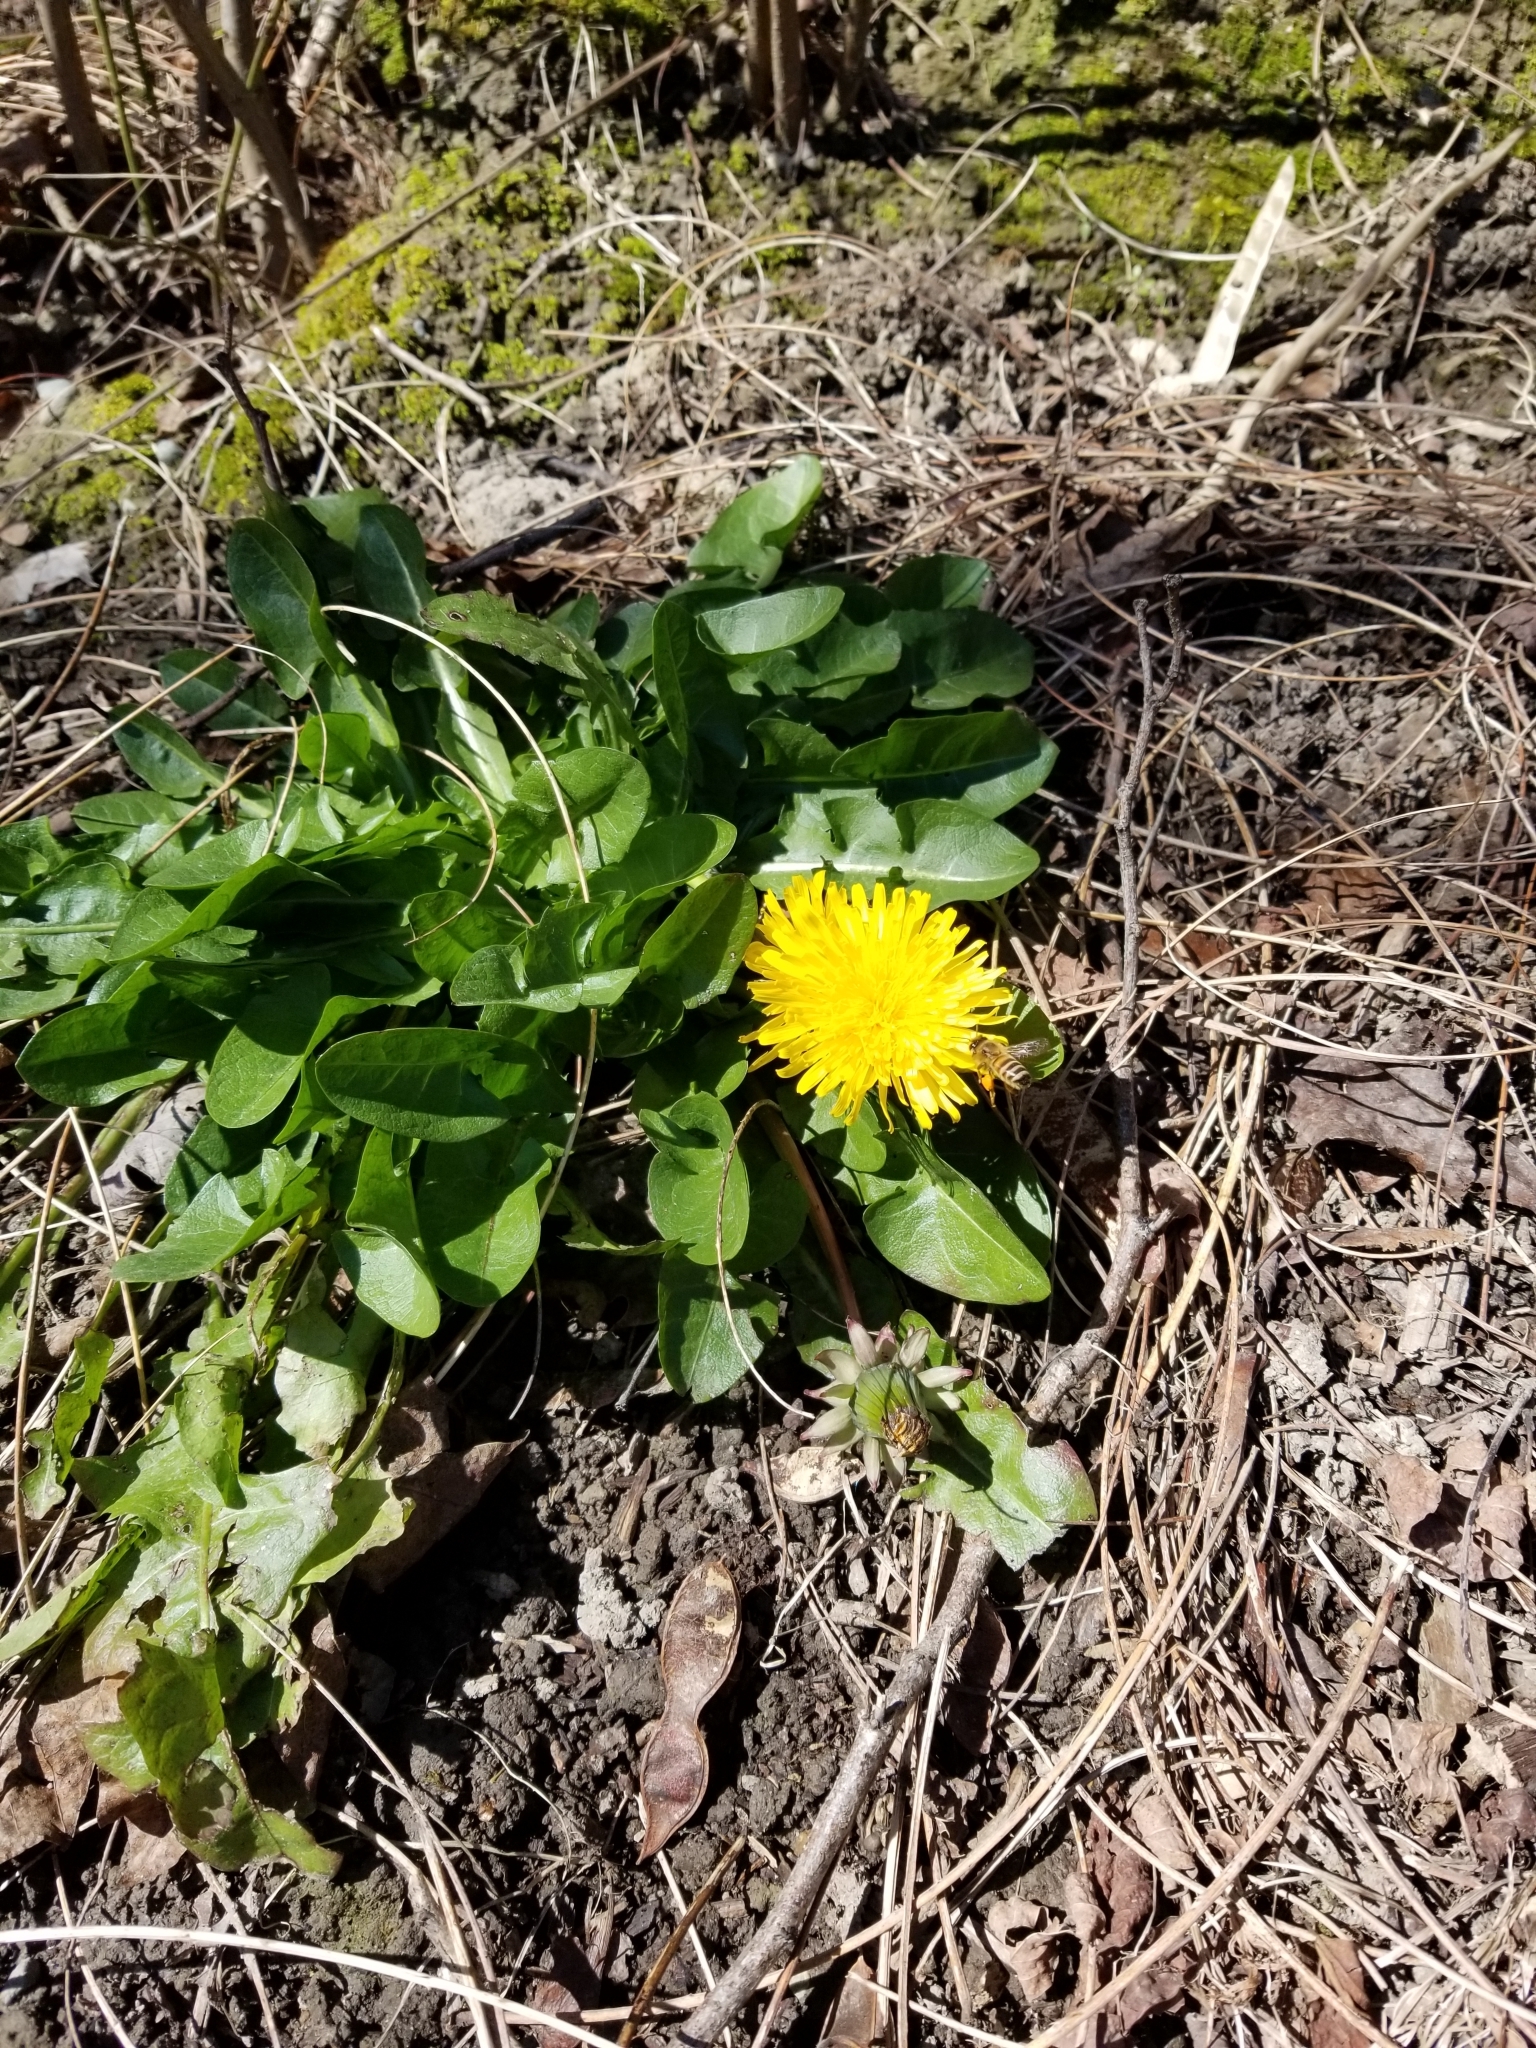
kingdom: Animalia
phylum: Arthropoda
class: Insecta
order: Hymenoptera
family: Apidae
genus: Apis
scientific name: Apis mellifera
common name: Honey bee
